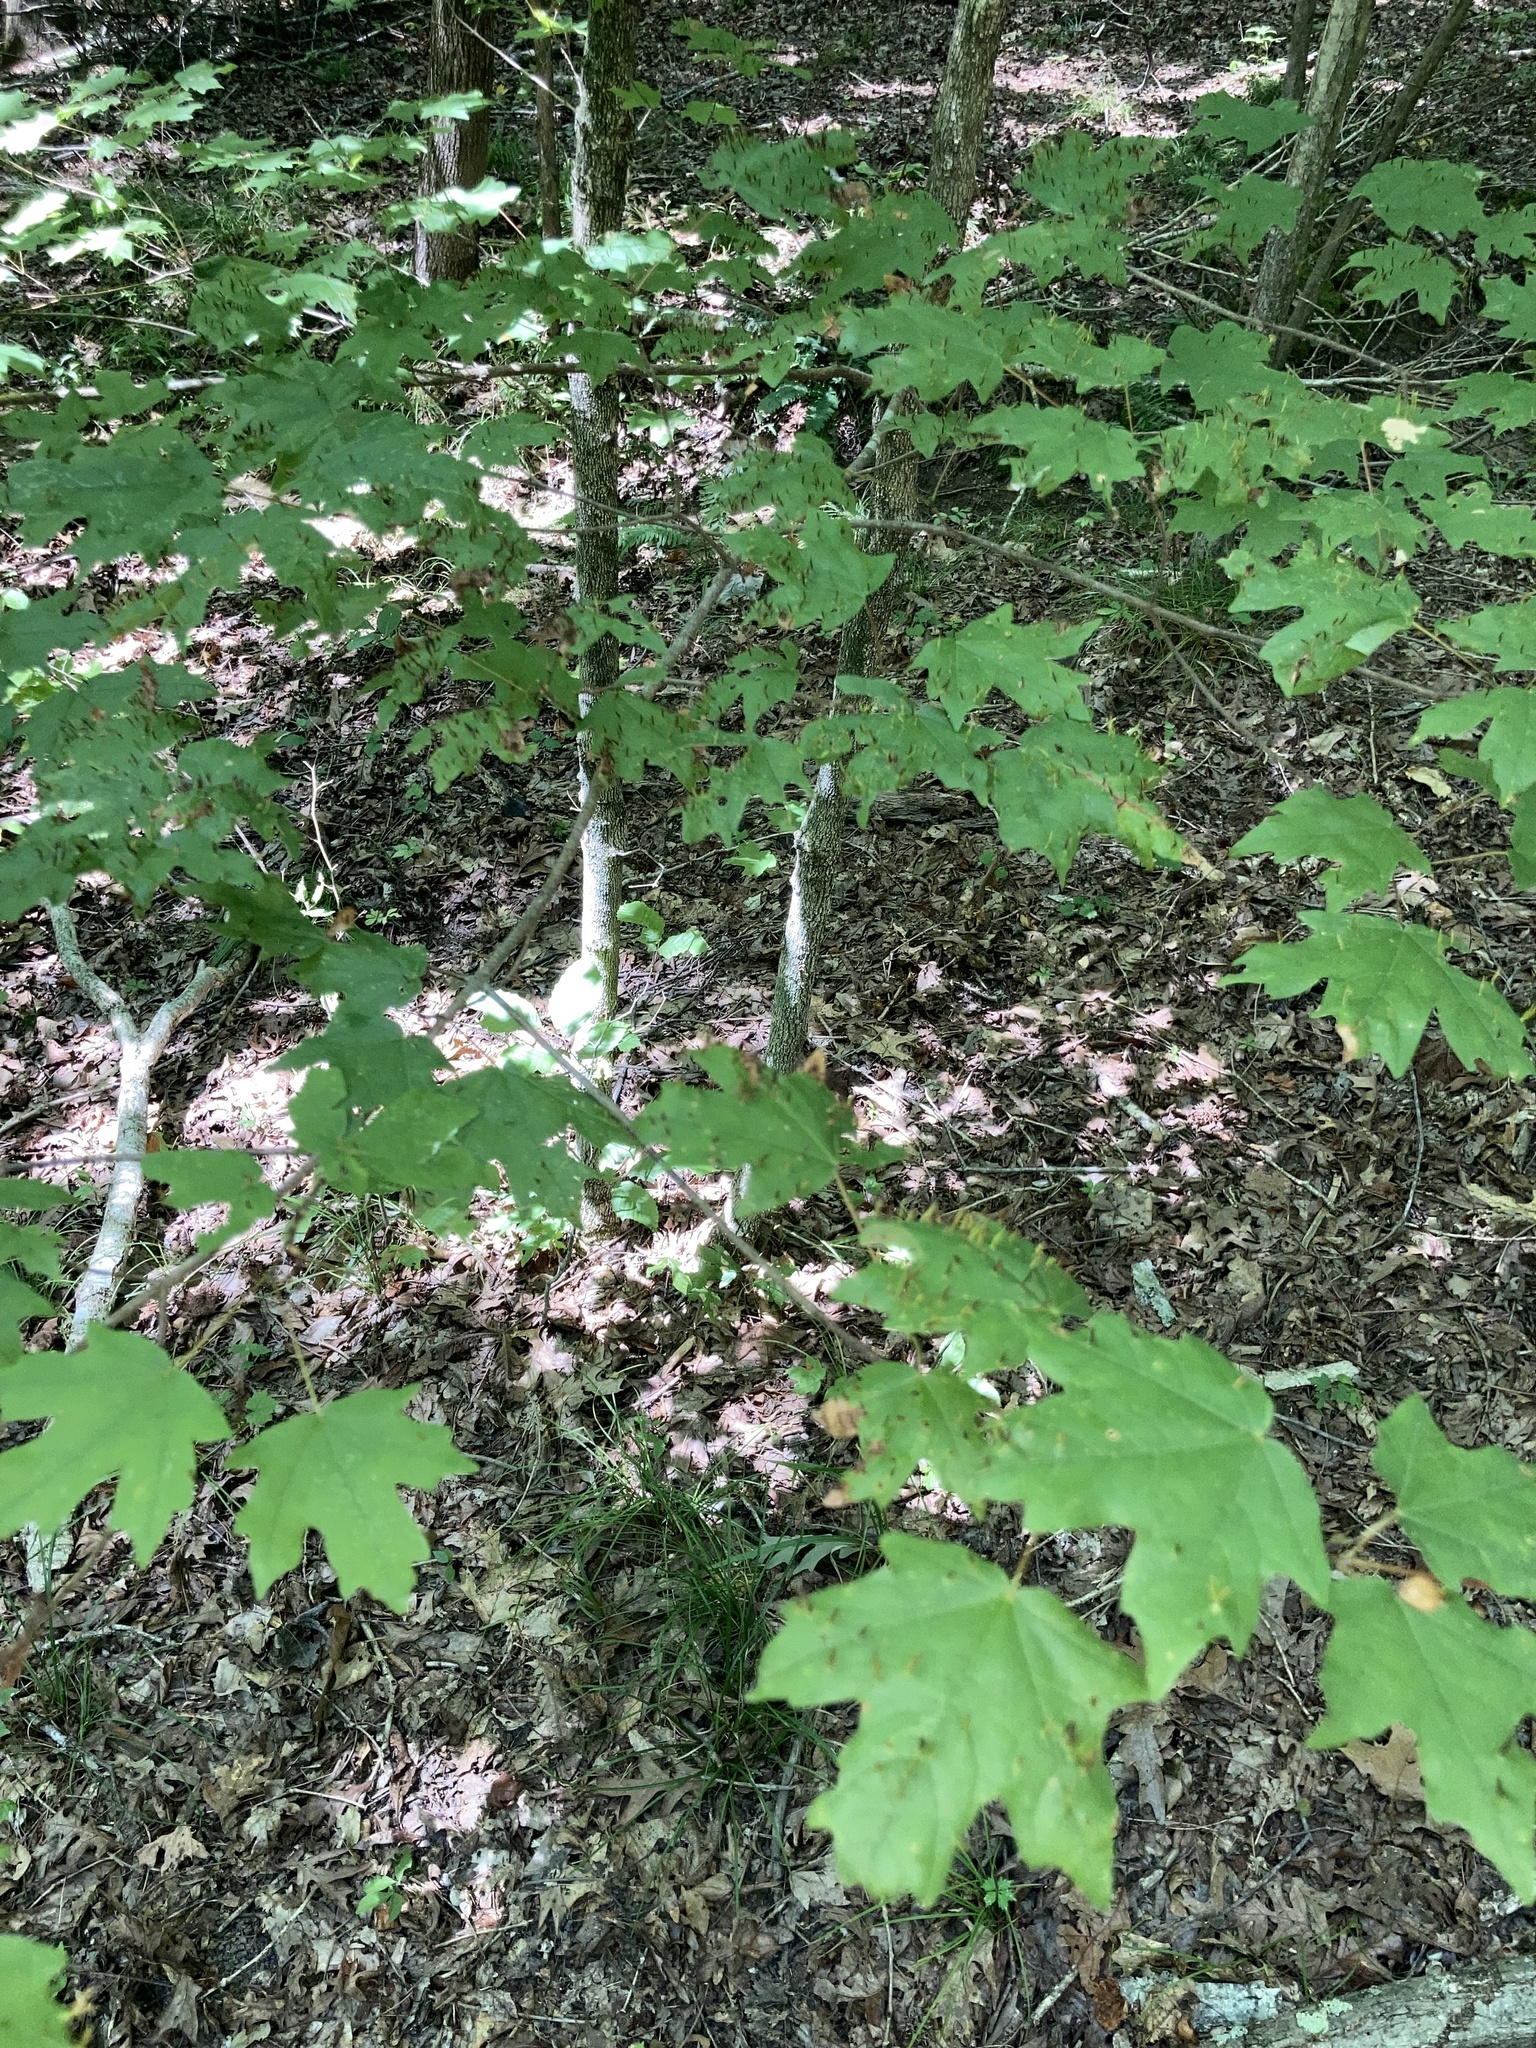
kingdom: Animalia
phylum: Arthropoda
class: Arachnida
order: Trombidiformes
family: Eriophyidae
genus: Vasates
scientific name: Vasates aceriscrumena
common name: Maple spindle gall mite
